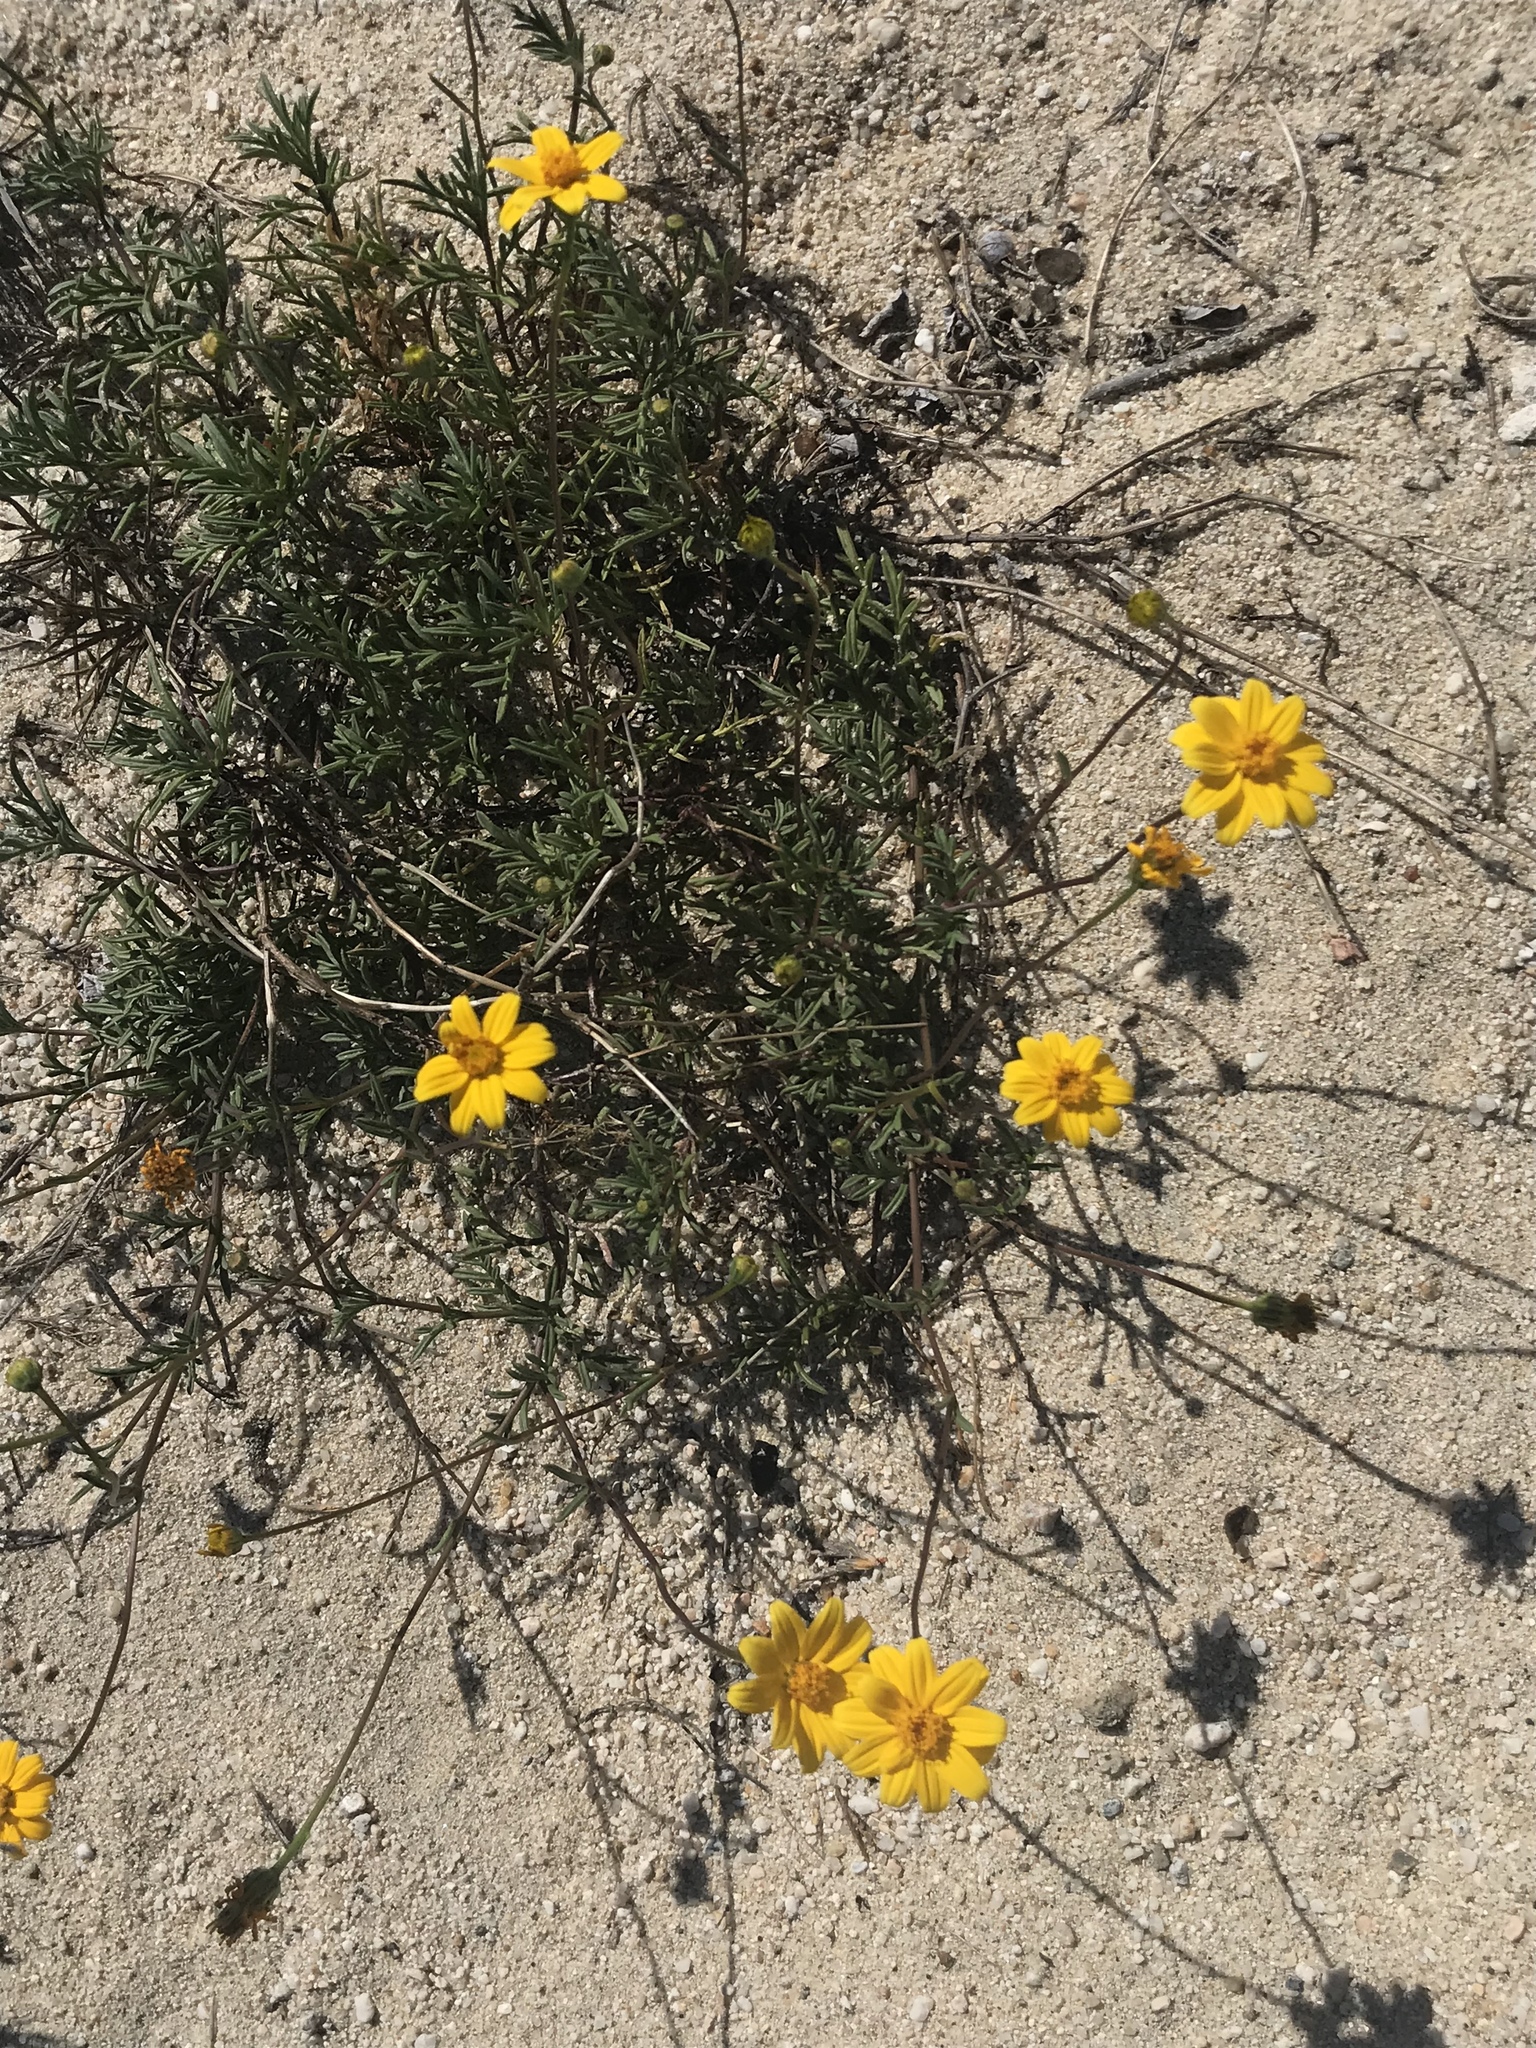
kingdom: Plantae
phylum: Tracheophyta
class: Magnoliopsida
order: Asterales
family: Asteraceae
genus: Bidens
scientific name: Bidens cabopulmensis
